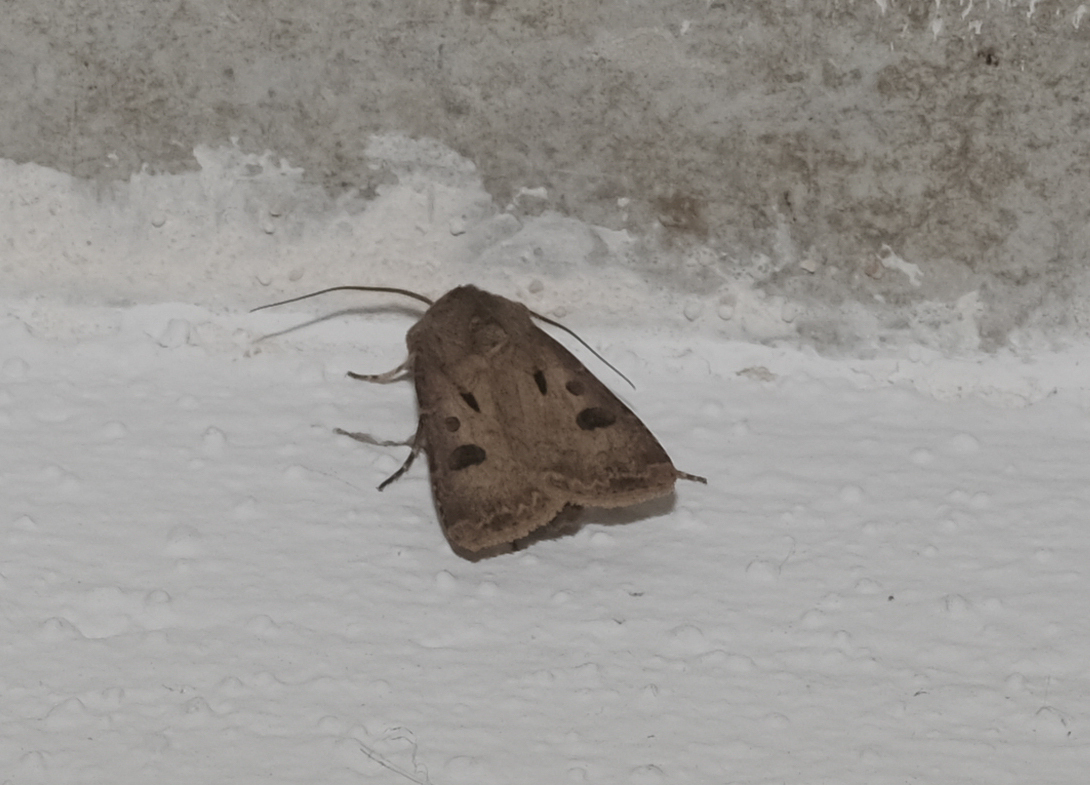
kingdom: Animalia
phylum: Arthropoda
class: Insecta
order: Lepidoptera
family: Noctuidae
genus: Agrotis
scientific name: Agrotis exclamationis
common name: Heart and dart
